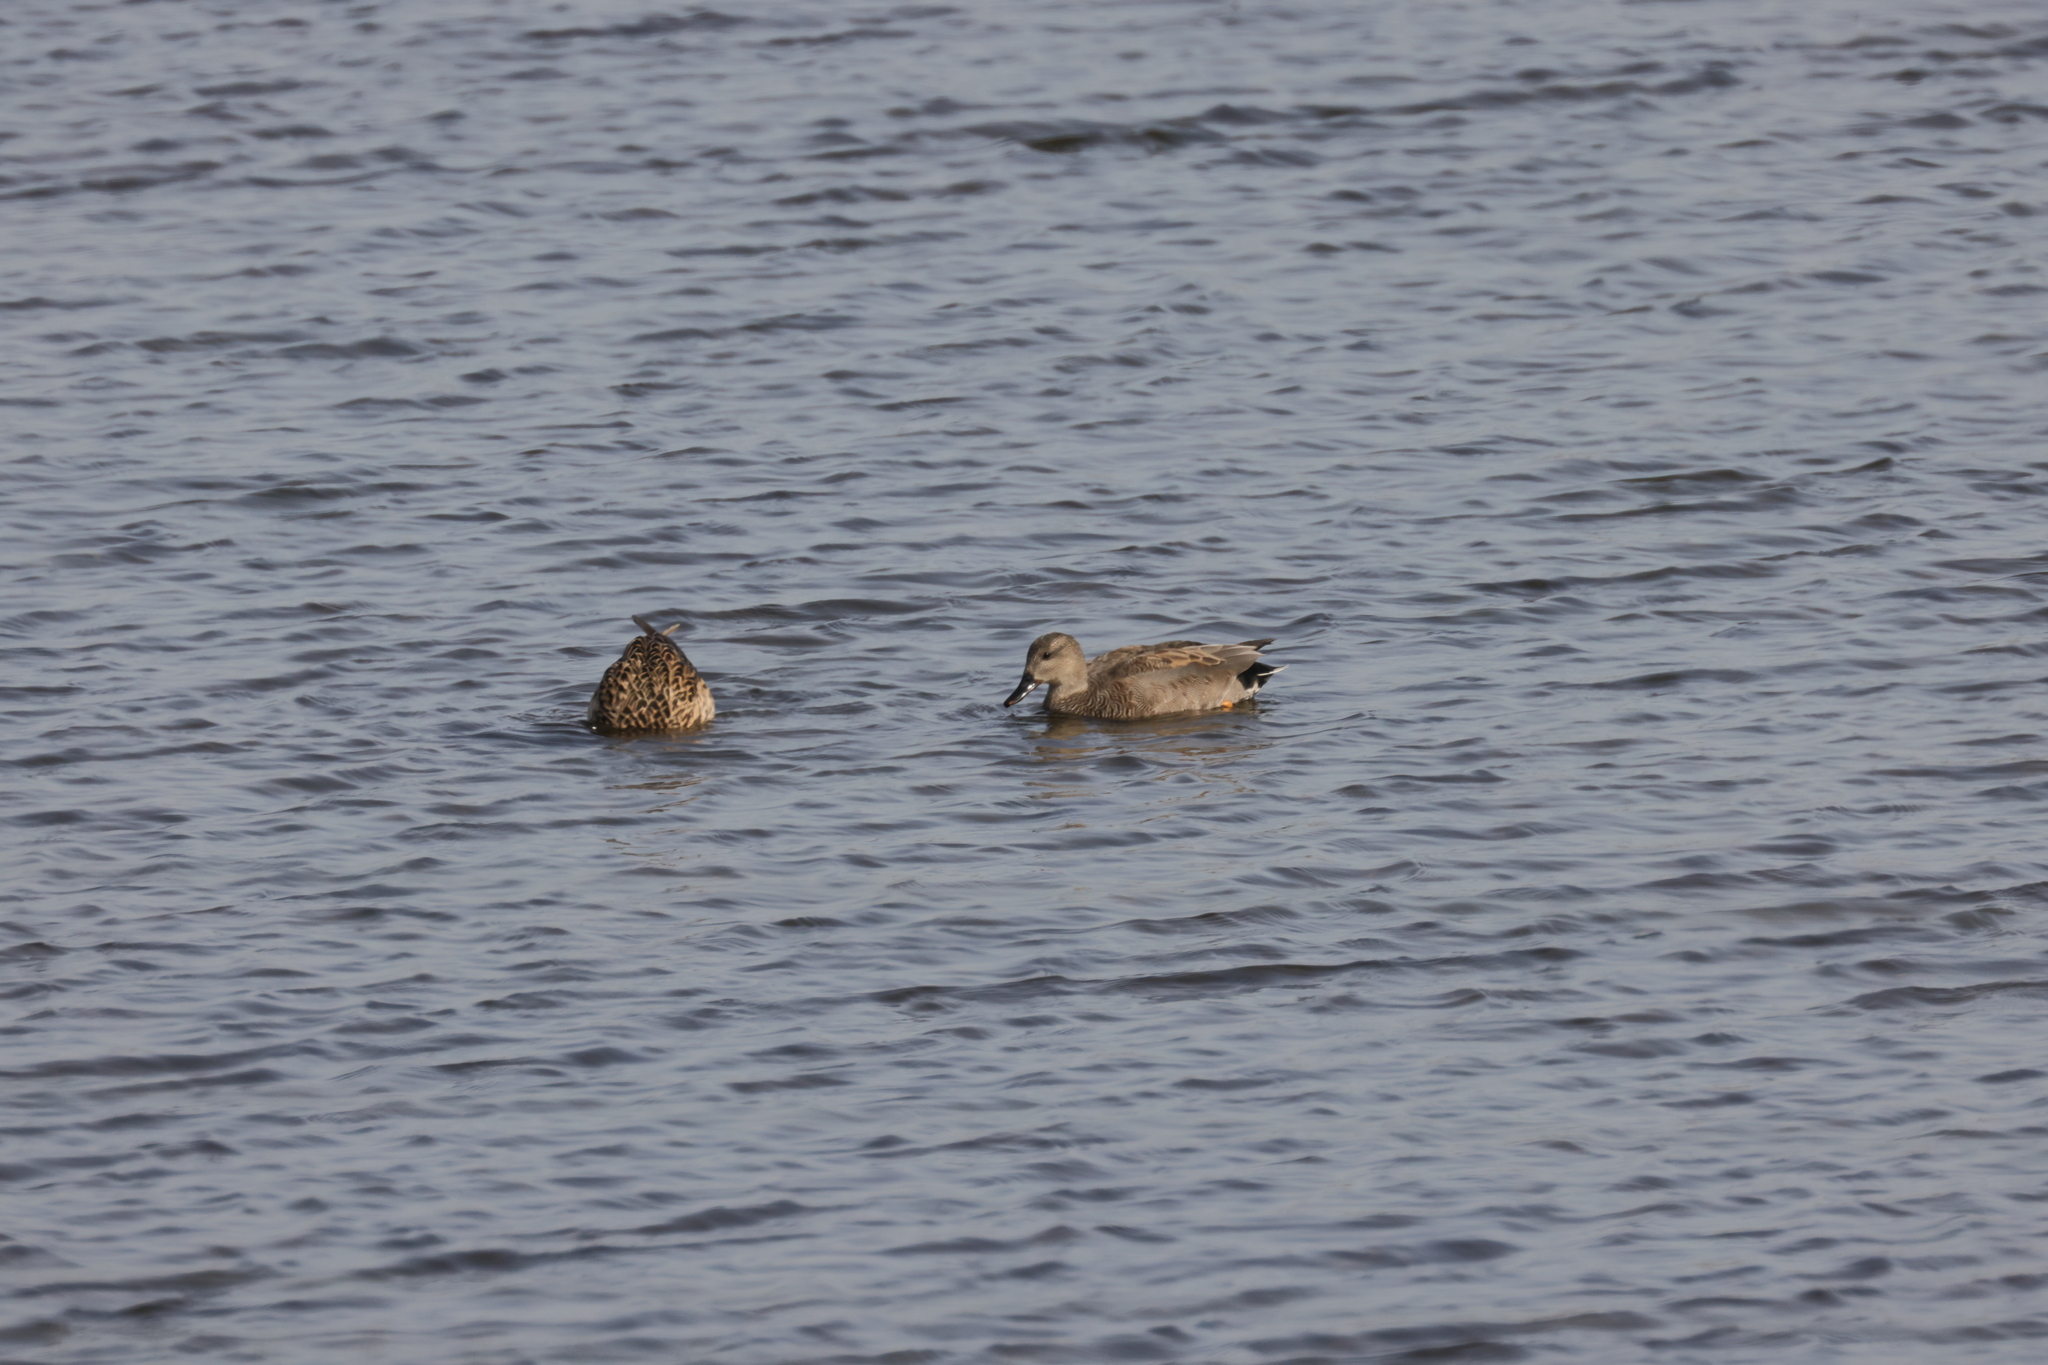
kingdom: Animalia
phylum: Chordata
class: Aves
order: Anseriformes
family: Anatidae
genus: Mareca
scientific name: Mareca strepera
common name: Gadwall
